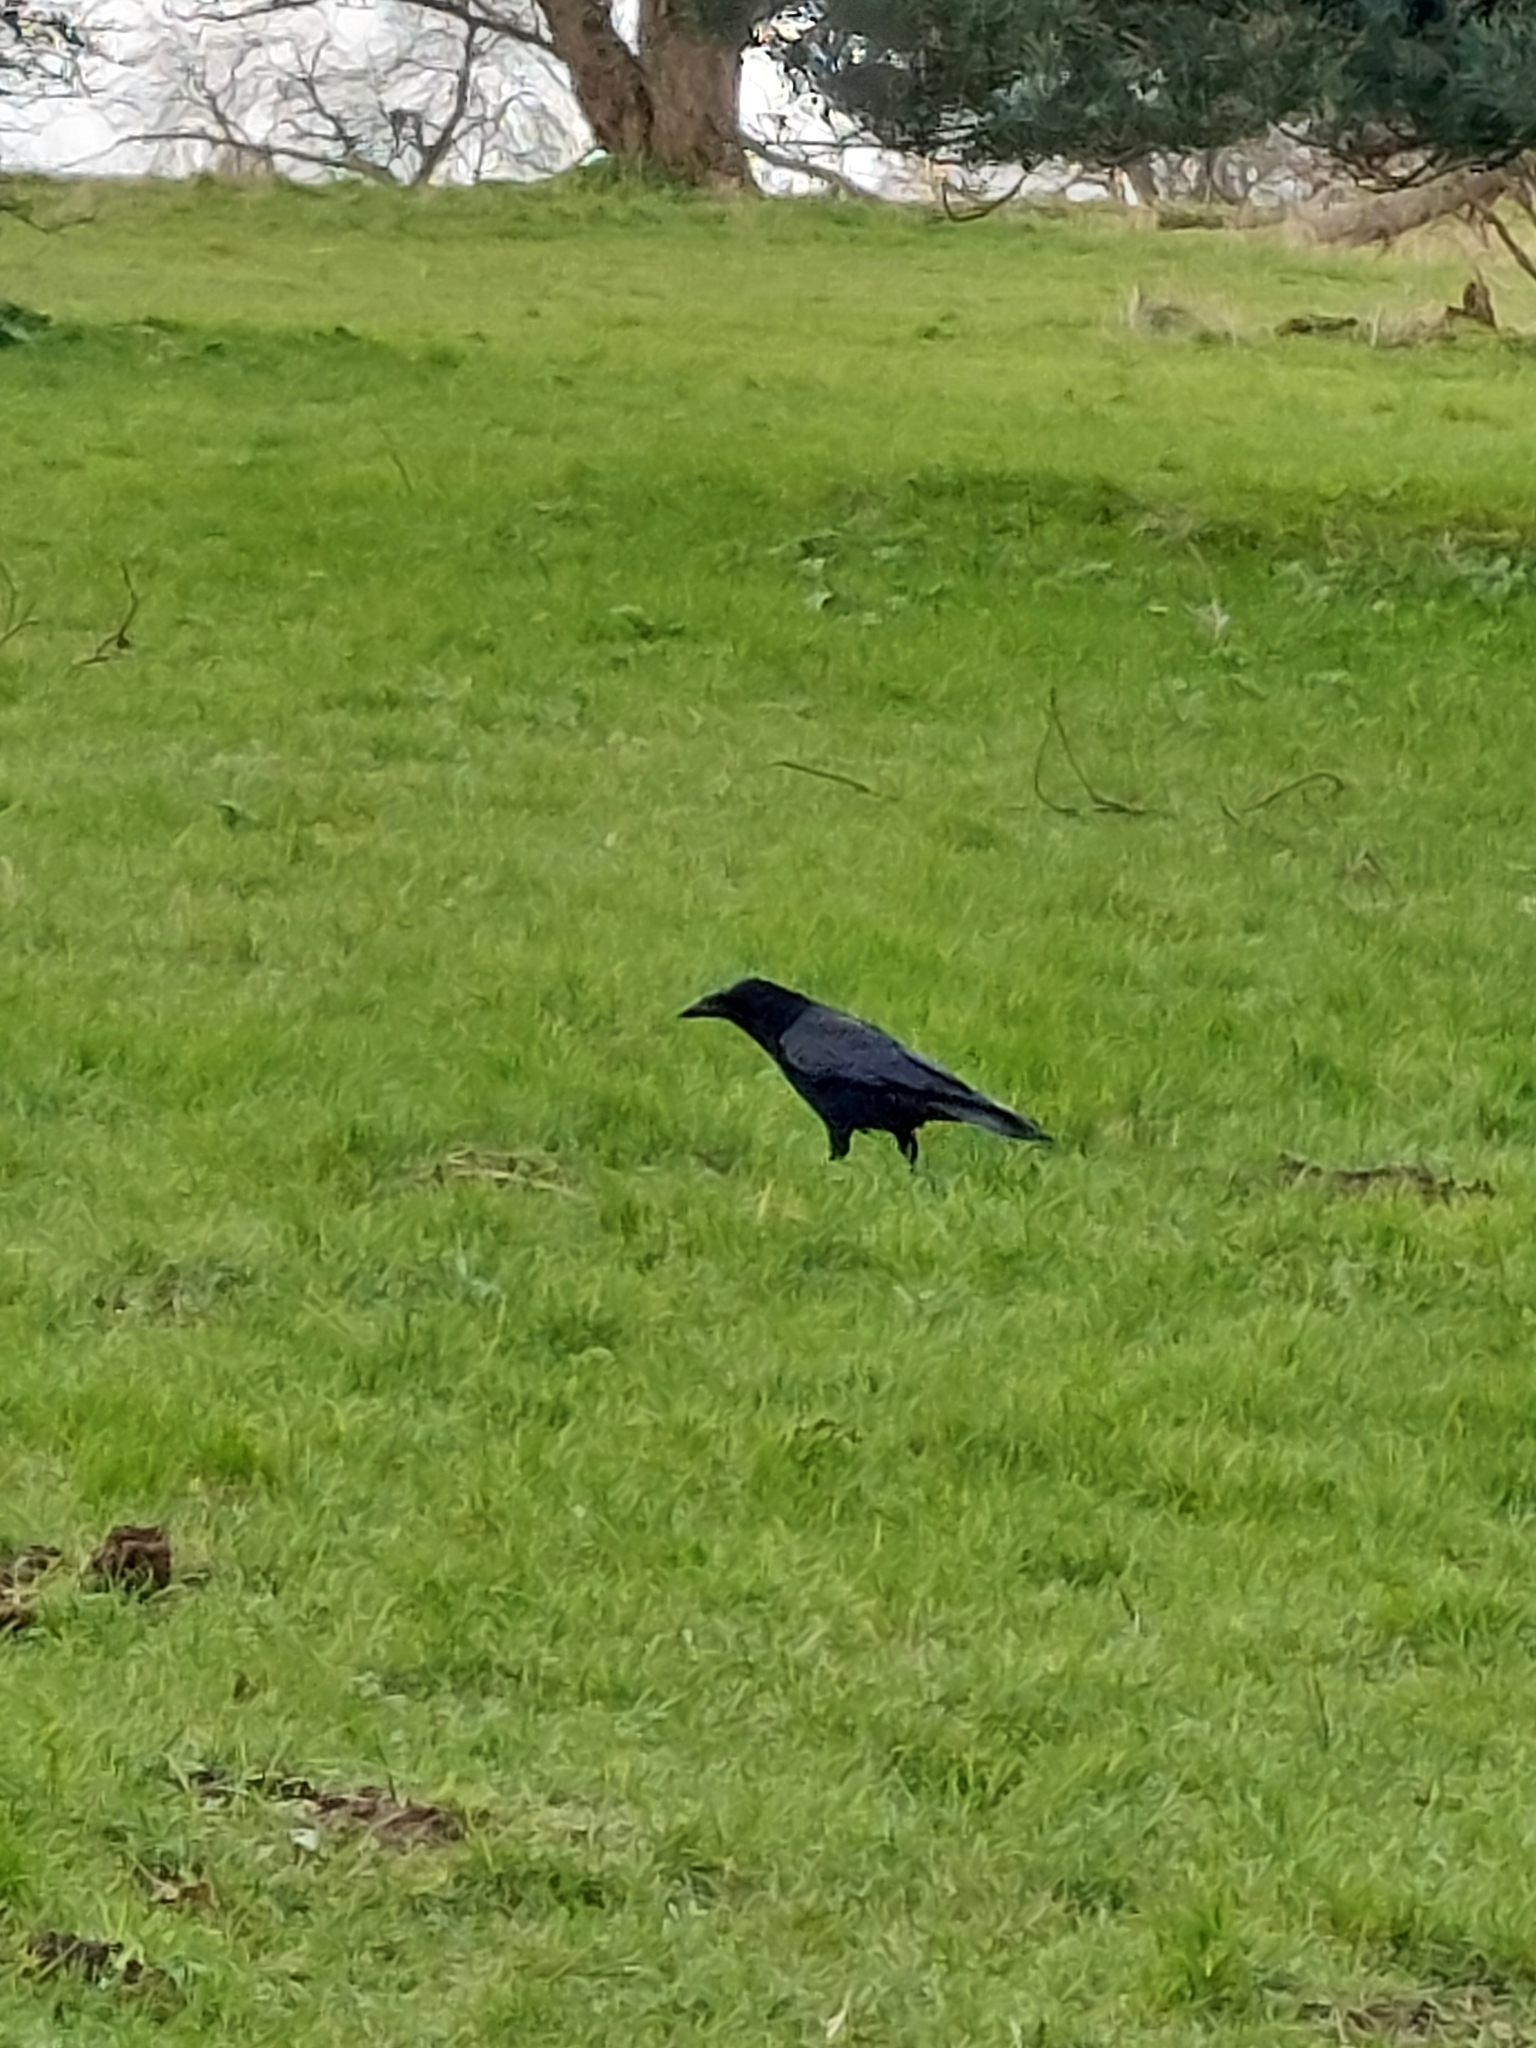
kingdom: Animalia
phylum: Chordata
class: Aves
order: Passeriformes
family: Corvidae
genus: Corvus
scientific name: Corvus corone
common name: Carrion crow
